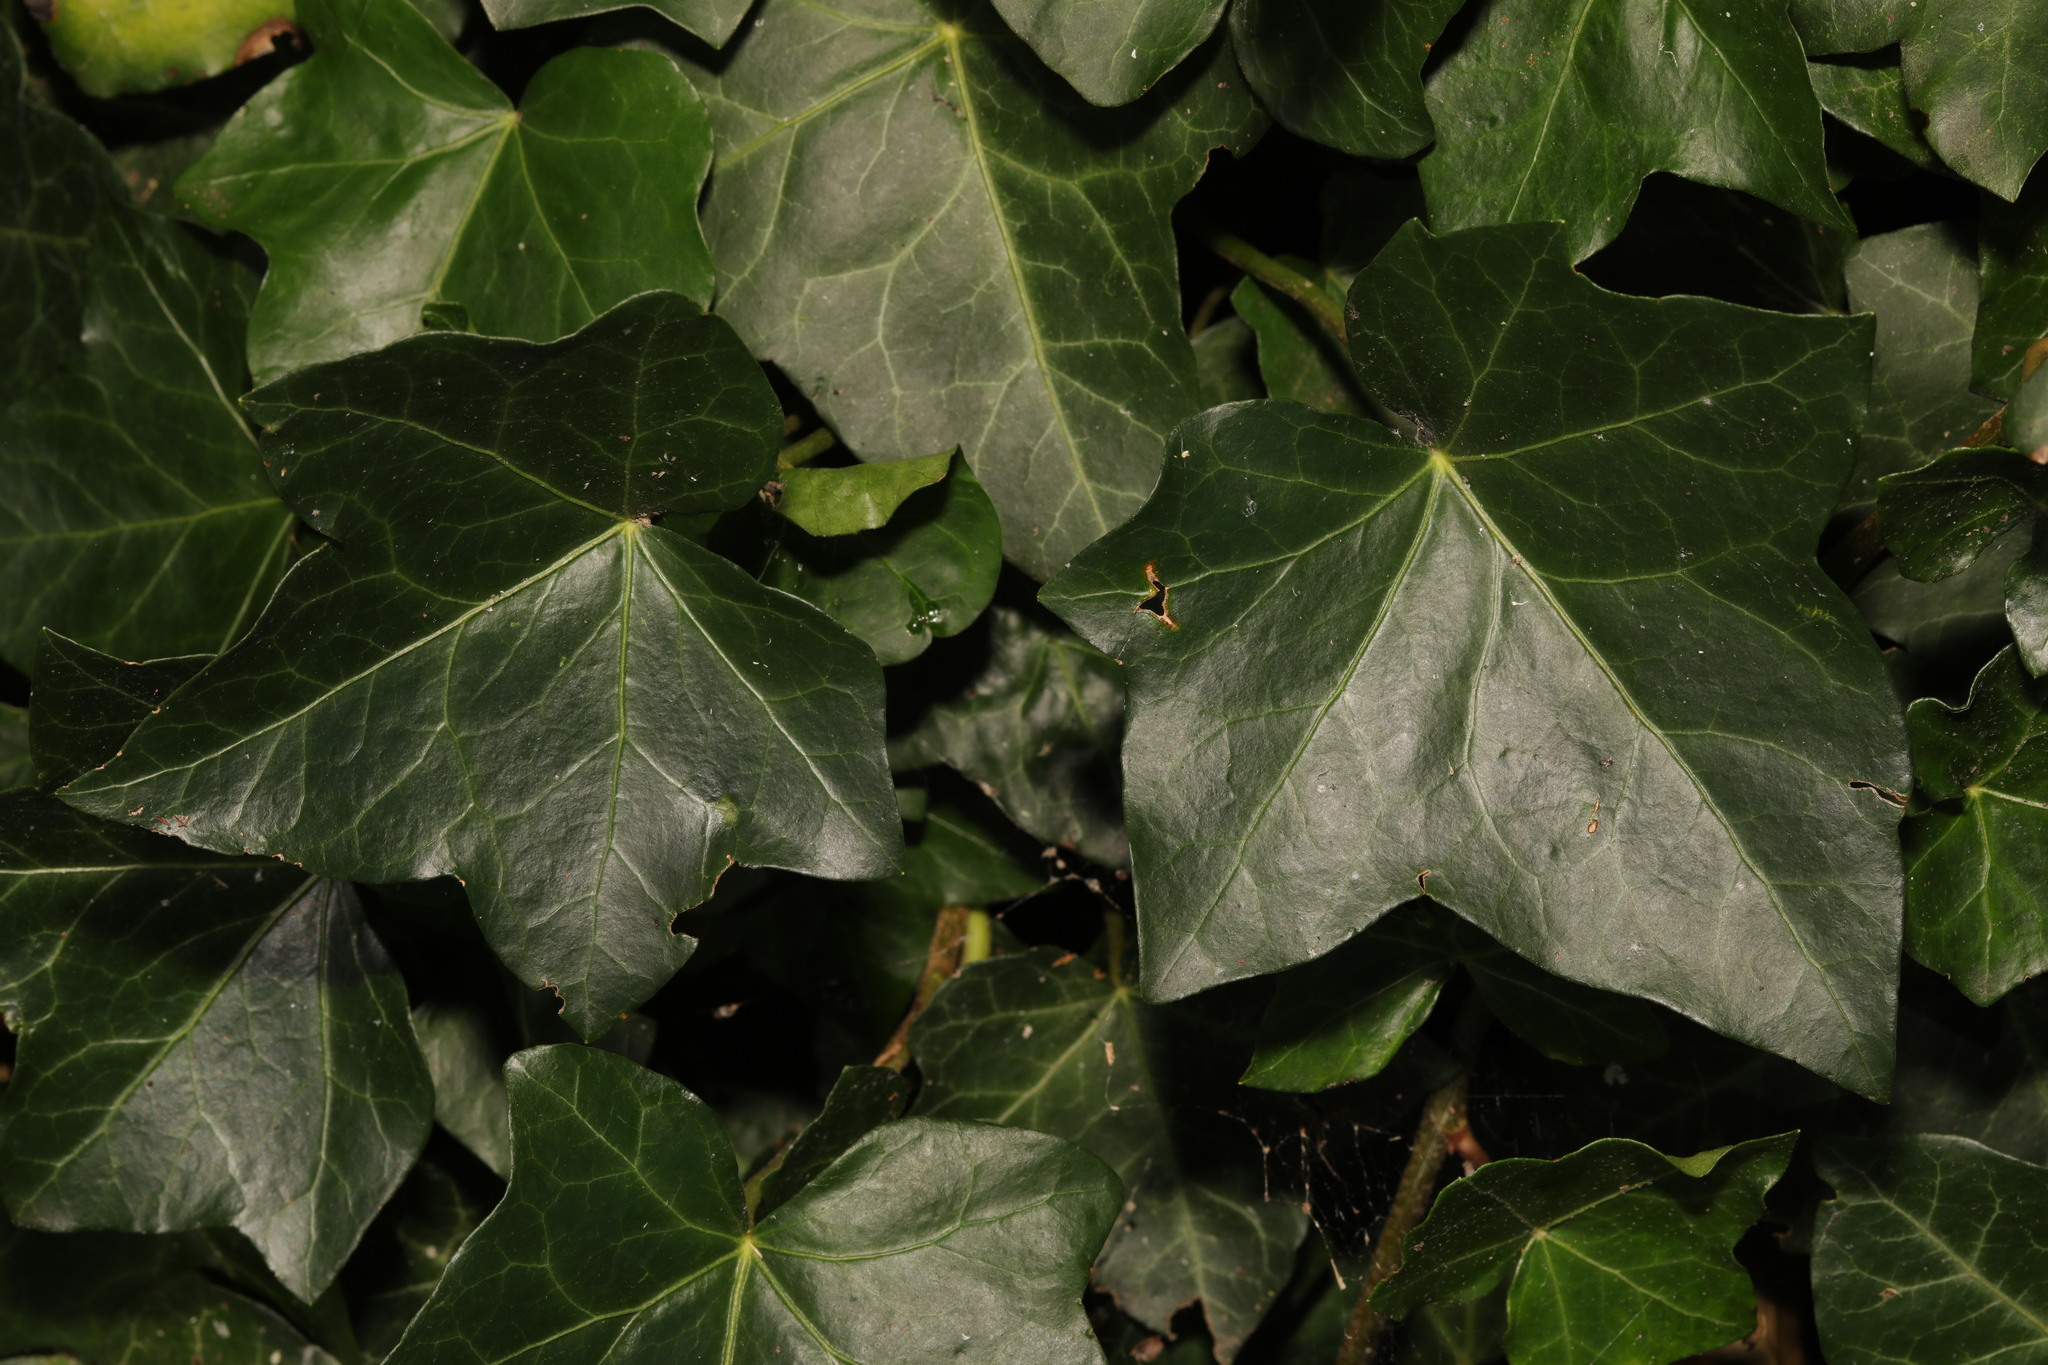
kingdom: Plantae
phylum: Tracheophyta
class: Magnoliopsida
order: Apiales
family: Araliaceae
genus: Hedera
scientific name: Hedera helix
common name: Ivy
